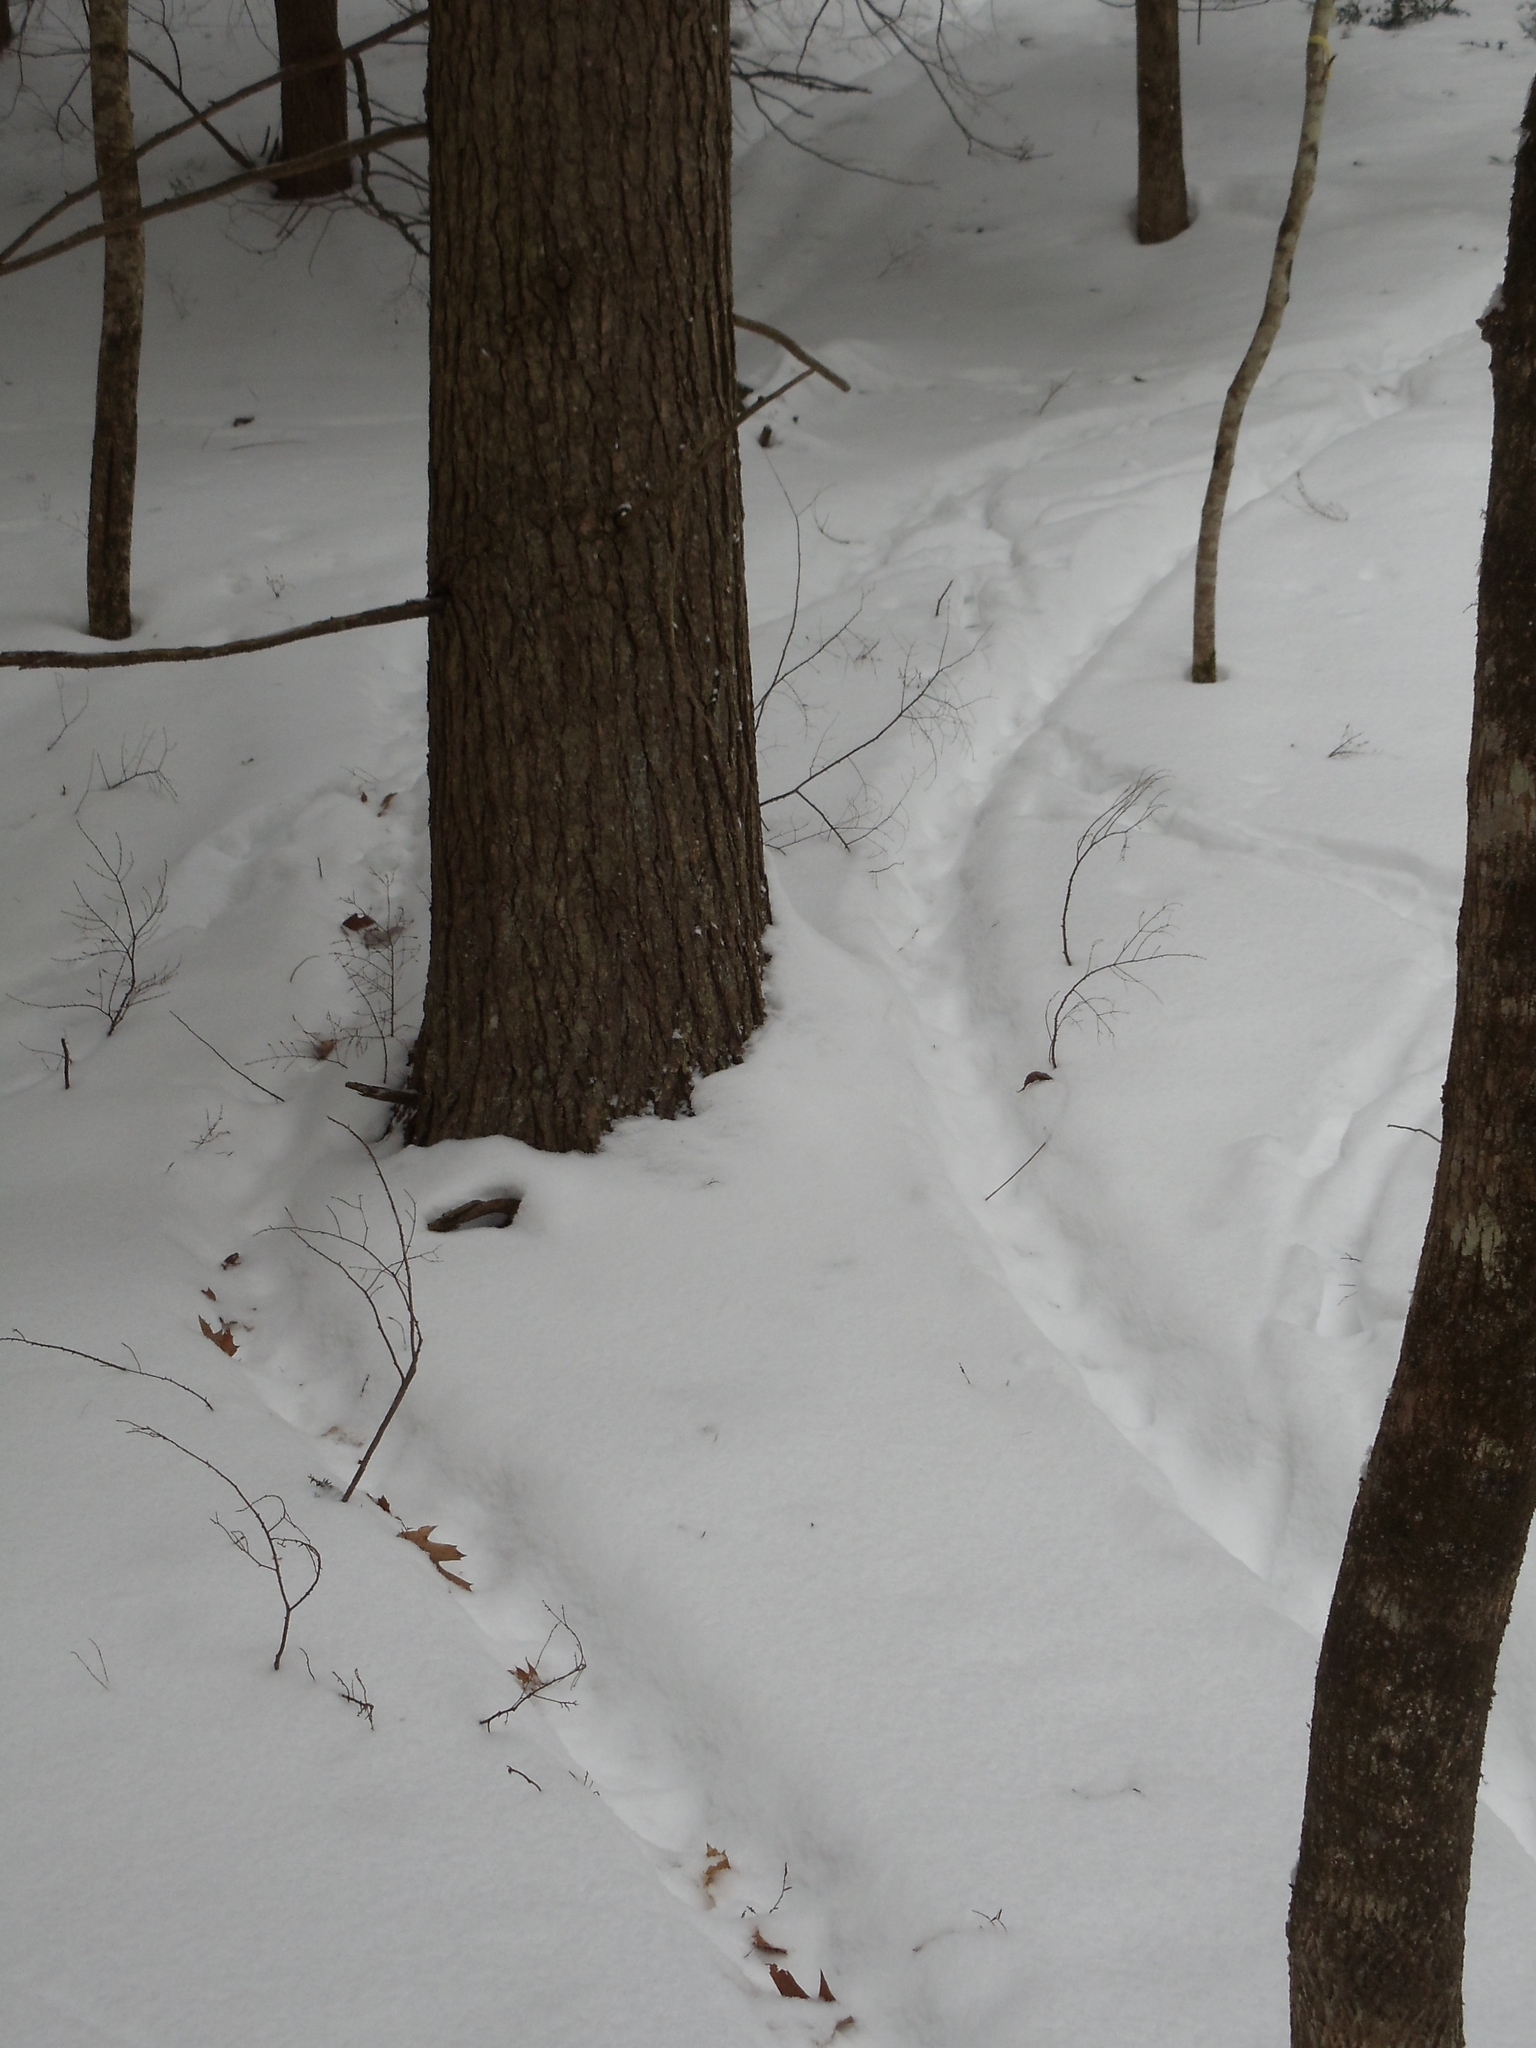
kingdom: Animalia
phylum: Chordata
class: Mammalia
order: Rodentia
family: Erethizontidae
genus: Erethizon
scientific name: Erethizon dorsatus
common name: North american porcupine
